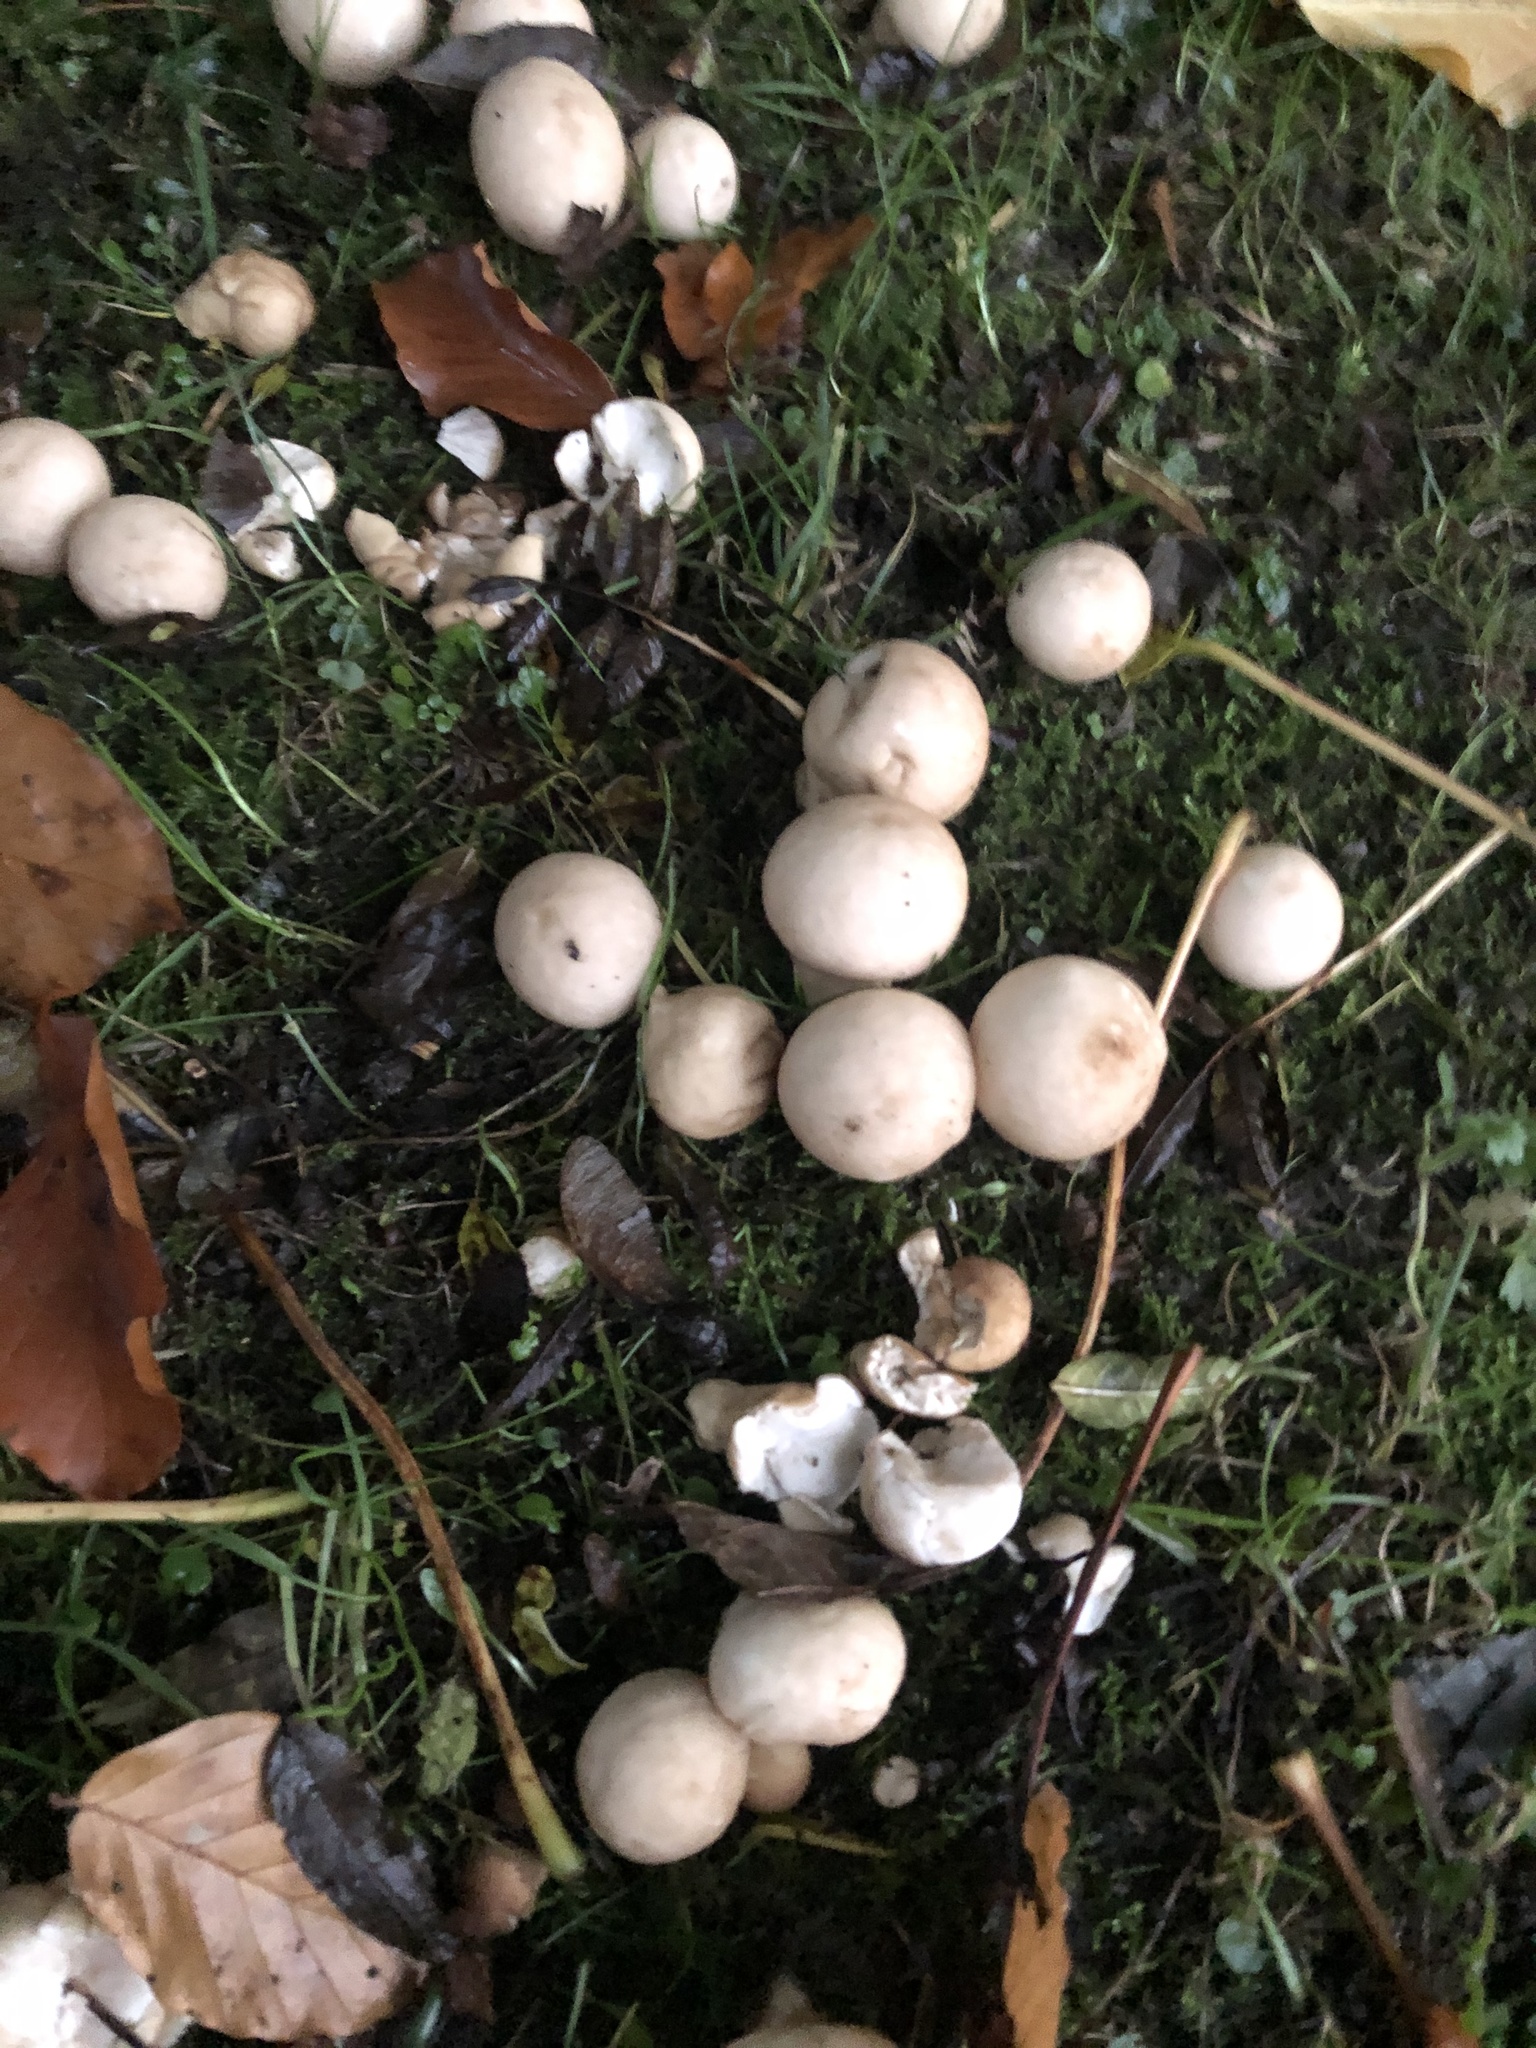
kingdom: Fungi
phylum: Basidiomycota
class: Agaricomycetes
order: Agaricales
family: Lycoperdaceae
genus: Apioperdon
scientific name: Apioperdon pyriforme
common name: Pear-shaped puffball
